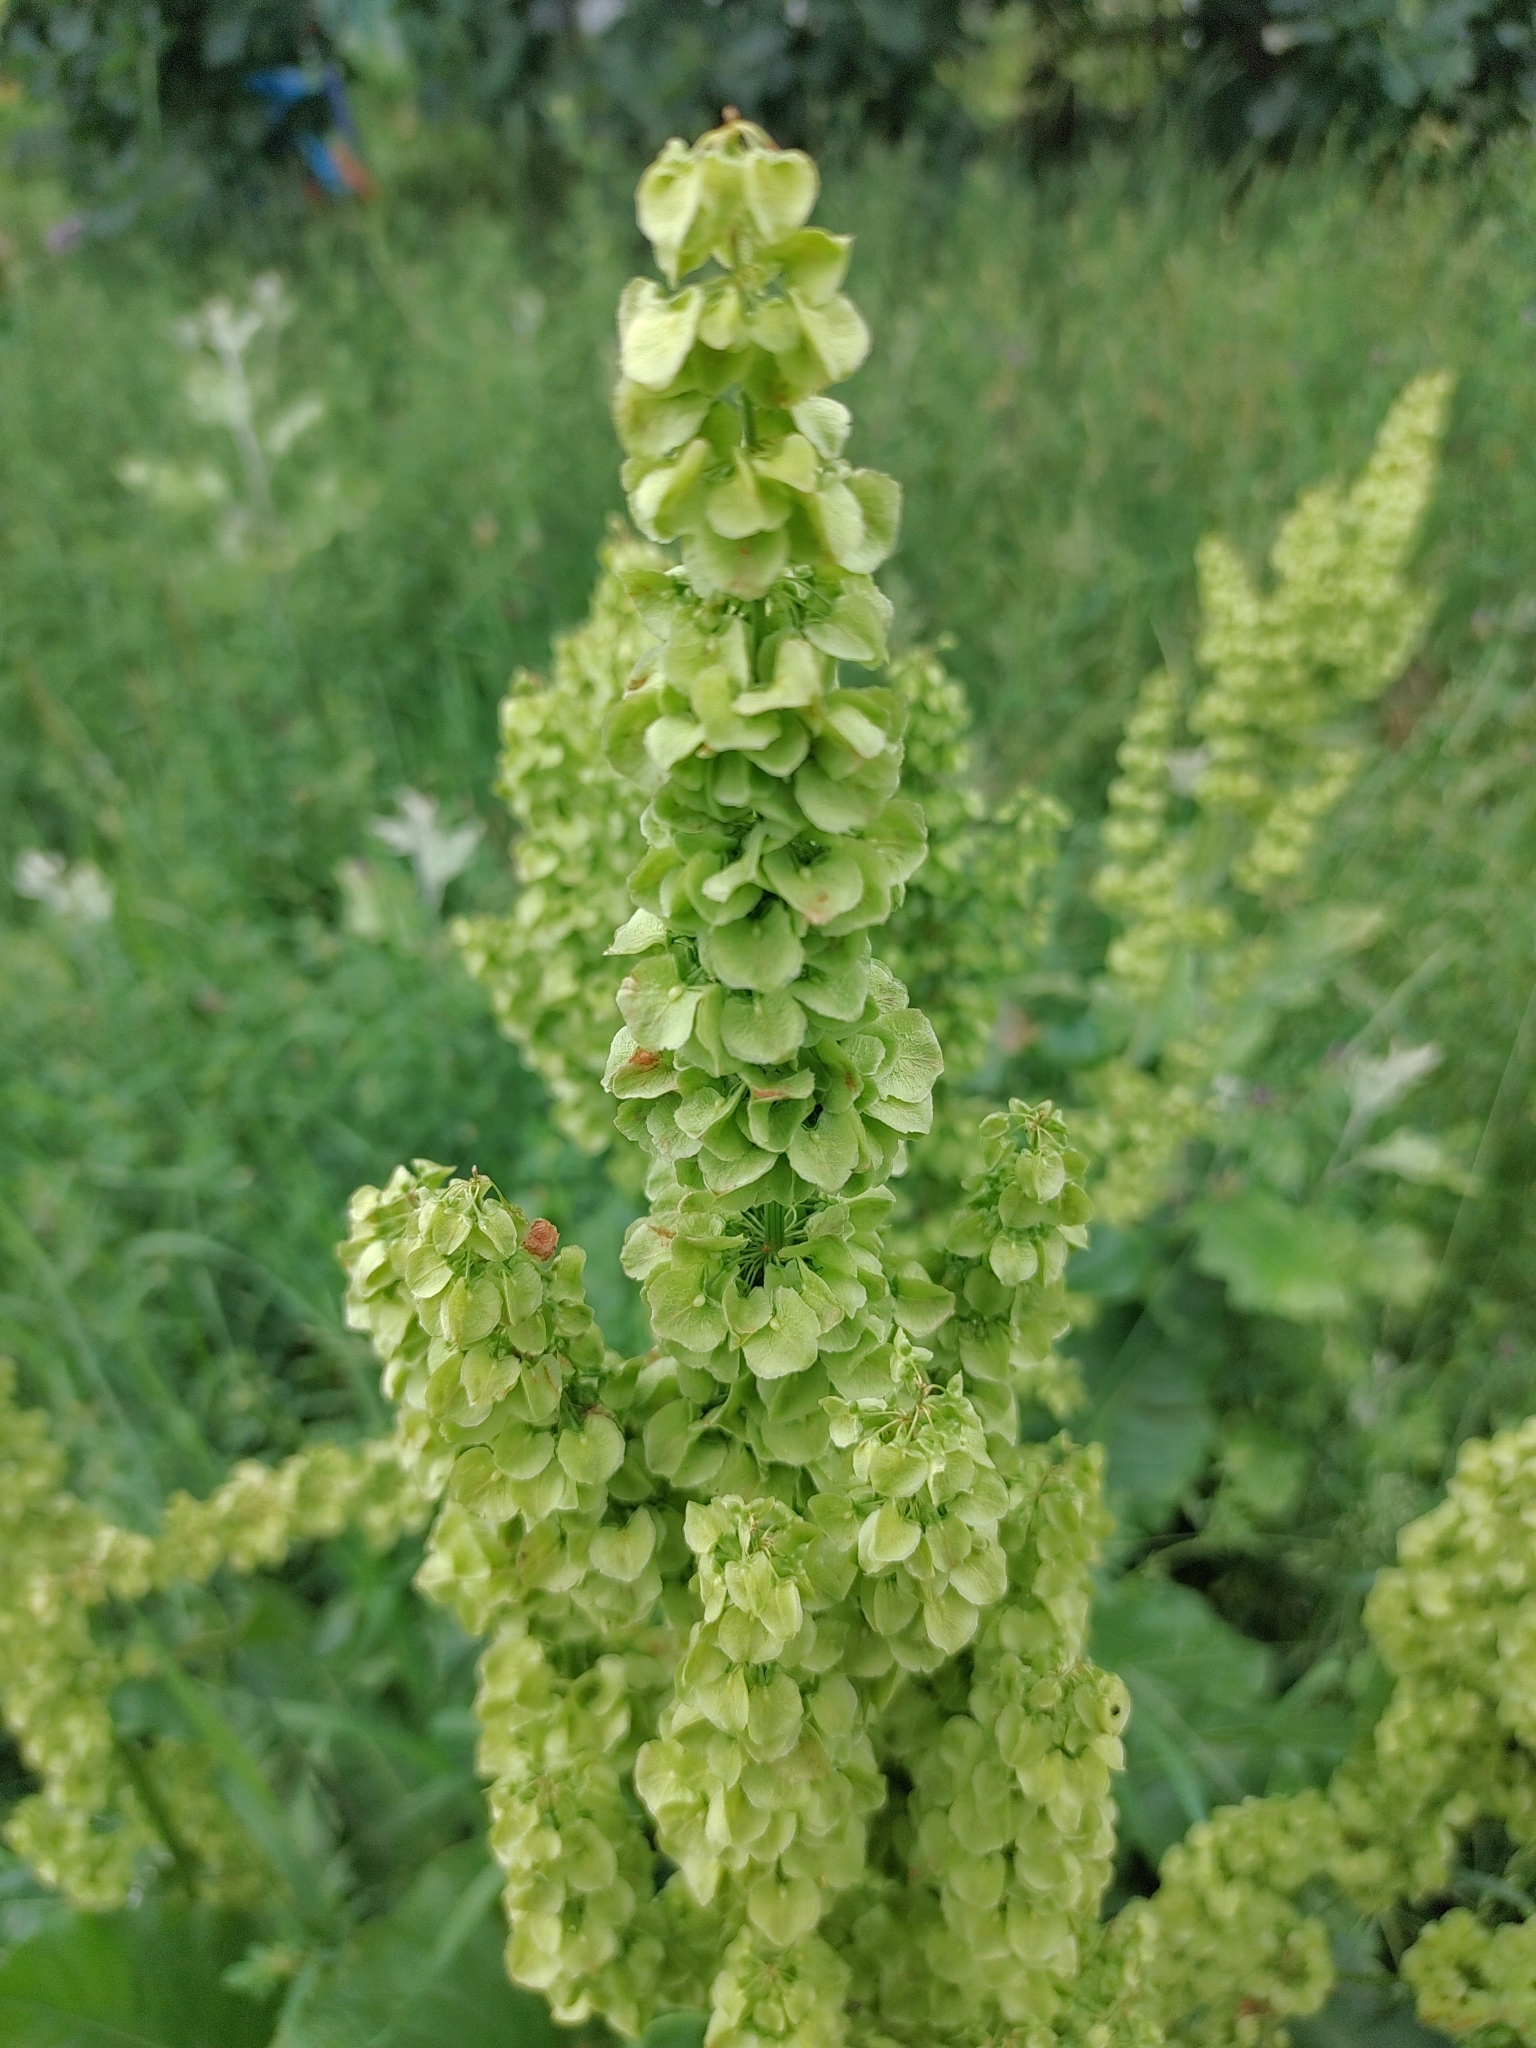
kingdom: Plantae
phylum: Tracheophyta
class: Magnoliopsida
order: Caryophyllales
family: Polygonaceae
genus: Rumex
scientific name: Rumex confertus
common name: Russian dock
